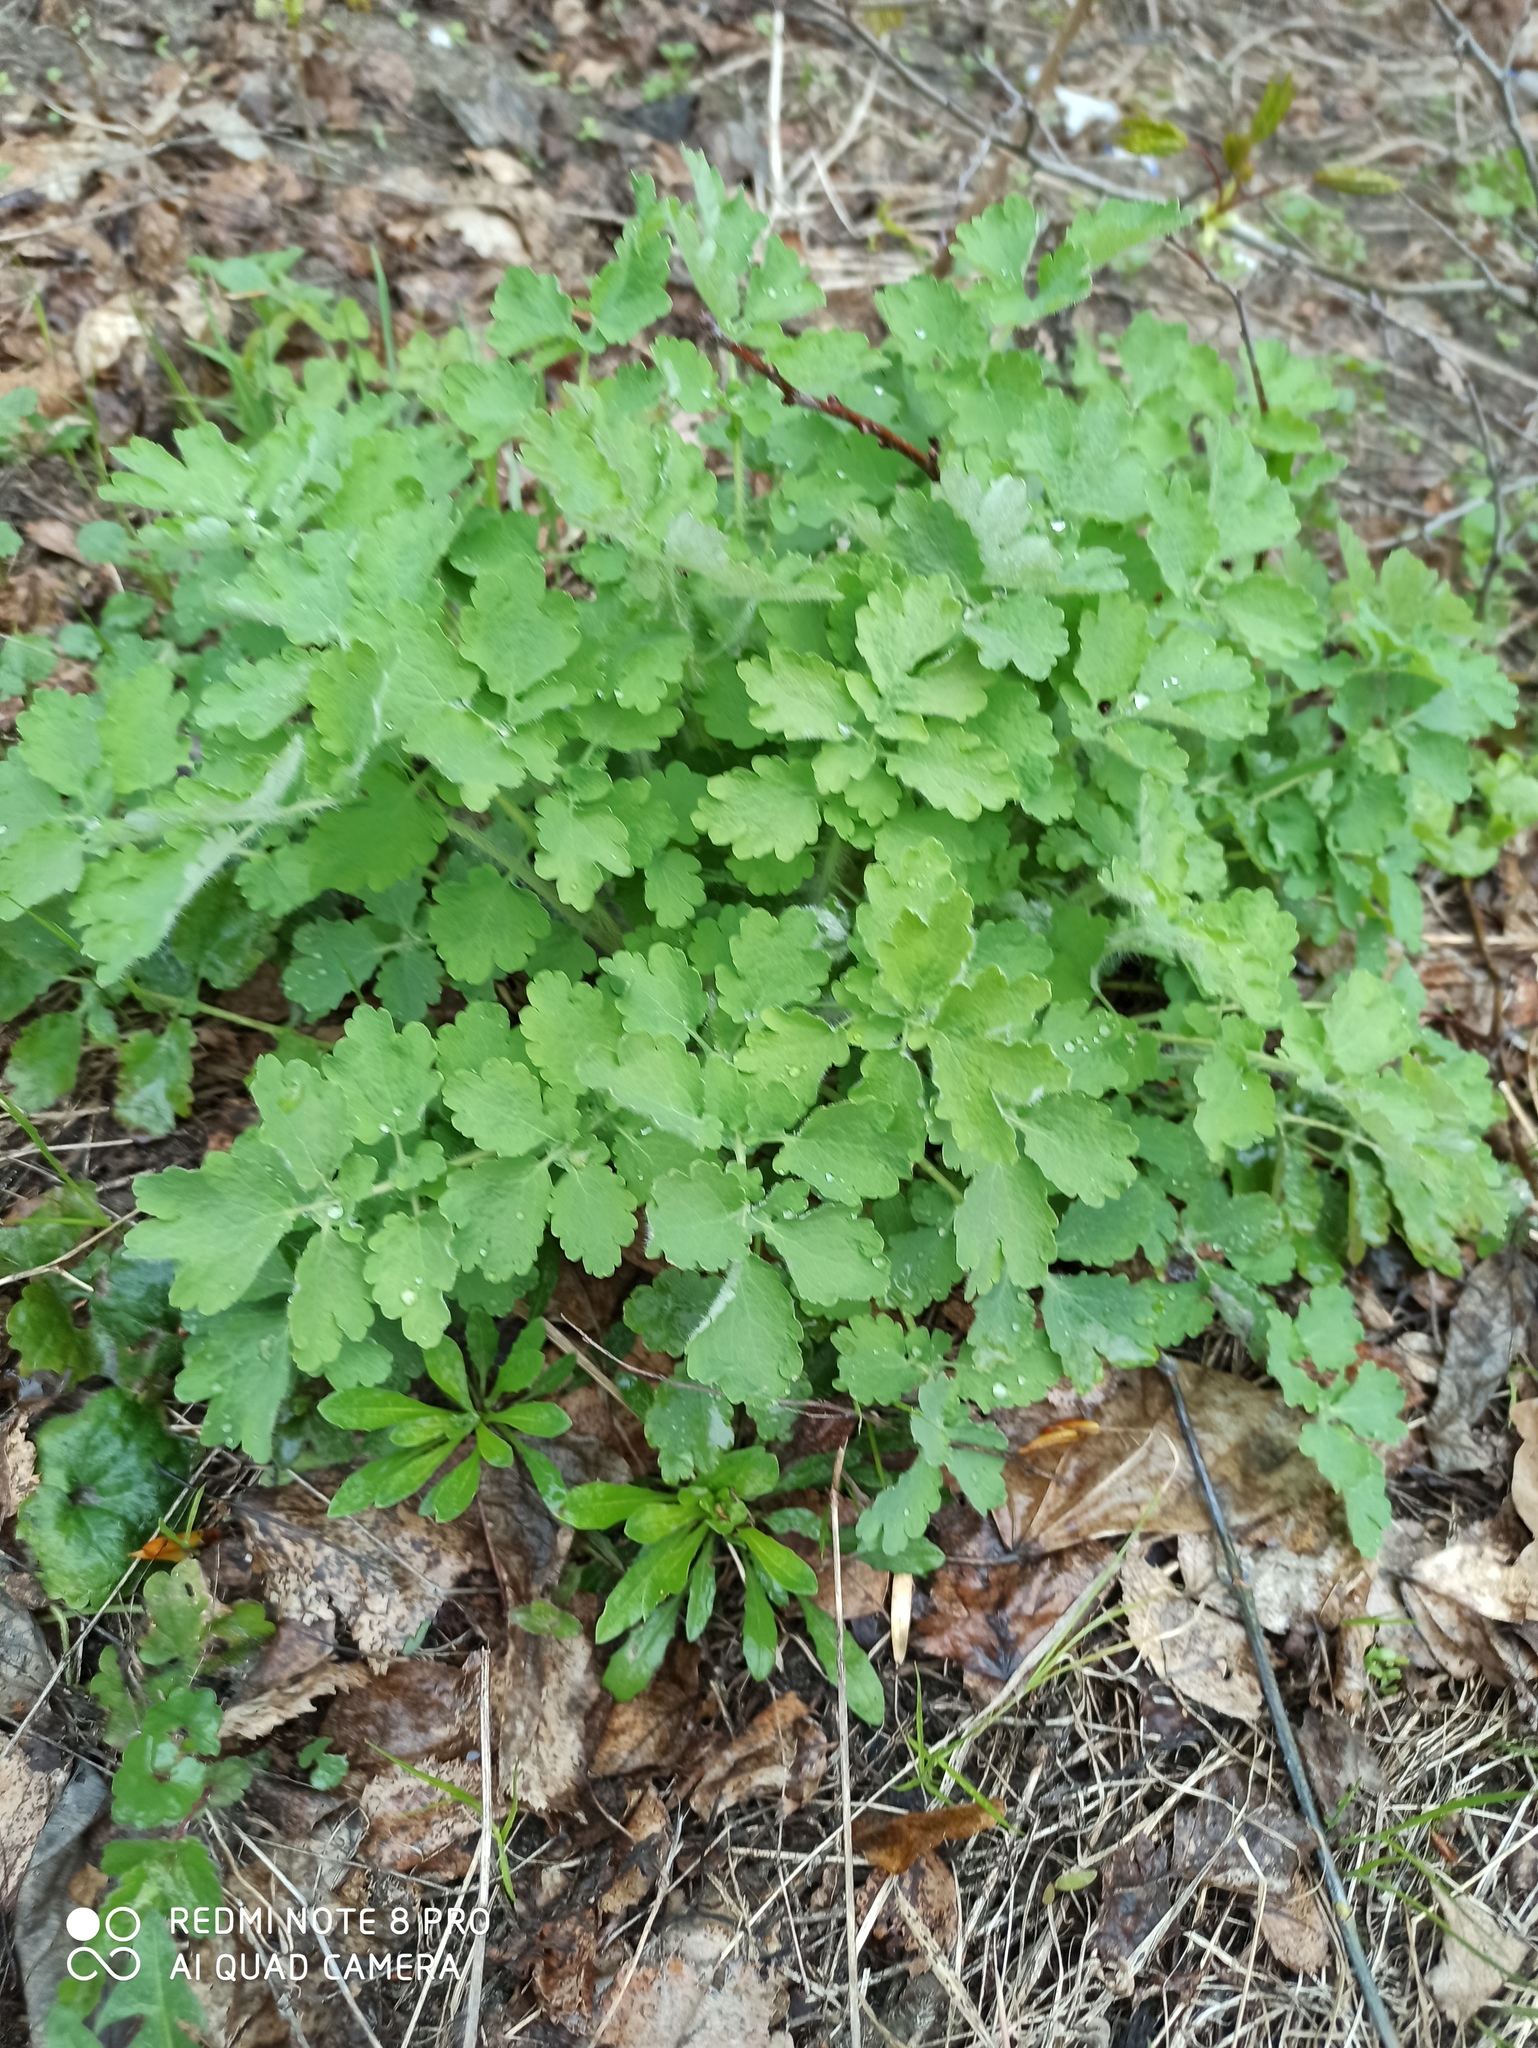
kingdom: Plantae
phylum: Tracheophyta
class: Magnoliopsida
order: Ranunculales
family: Papaveraceae
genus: Chelidonium
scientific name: Chelidonium majus
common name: Greater celandine
